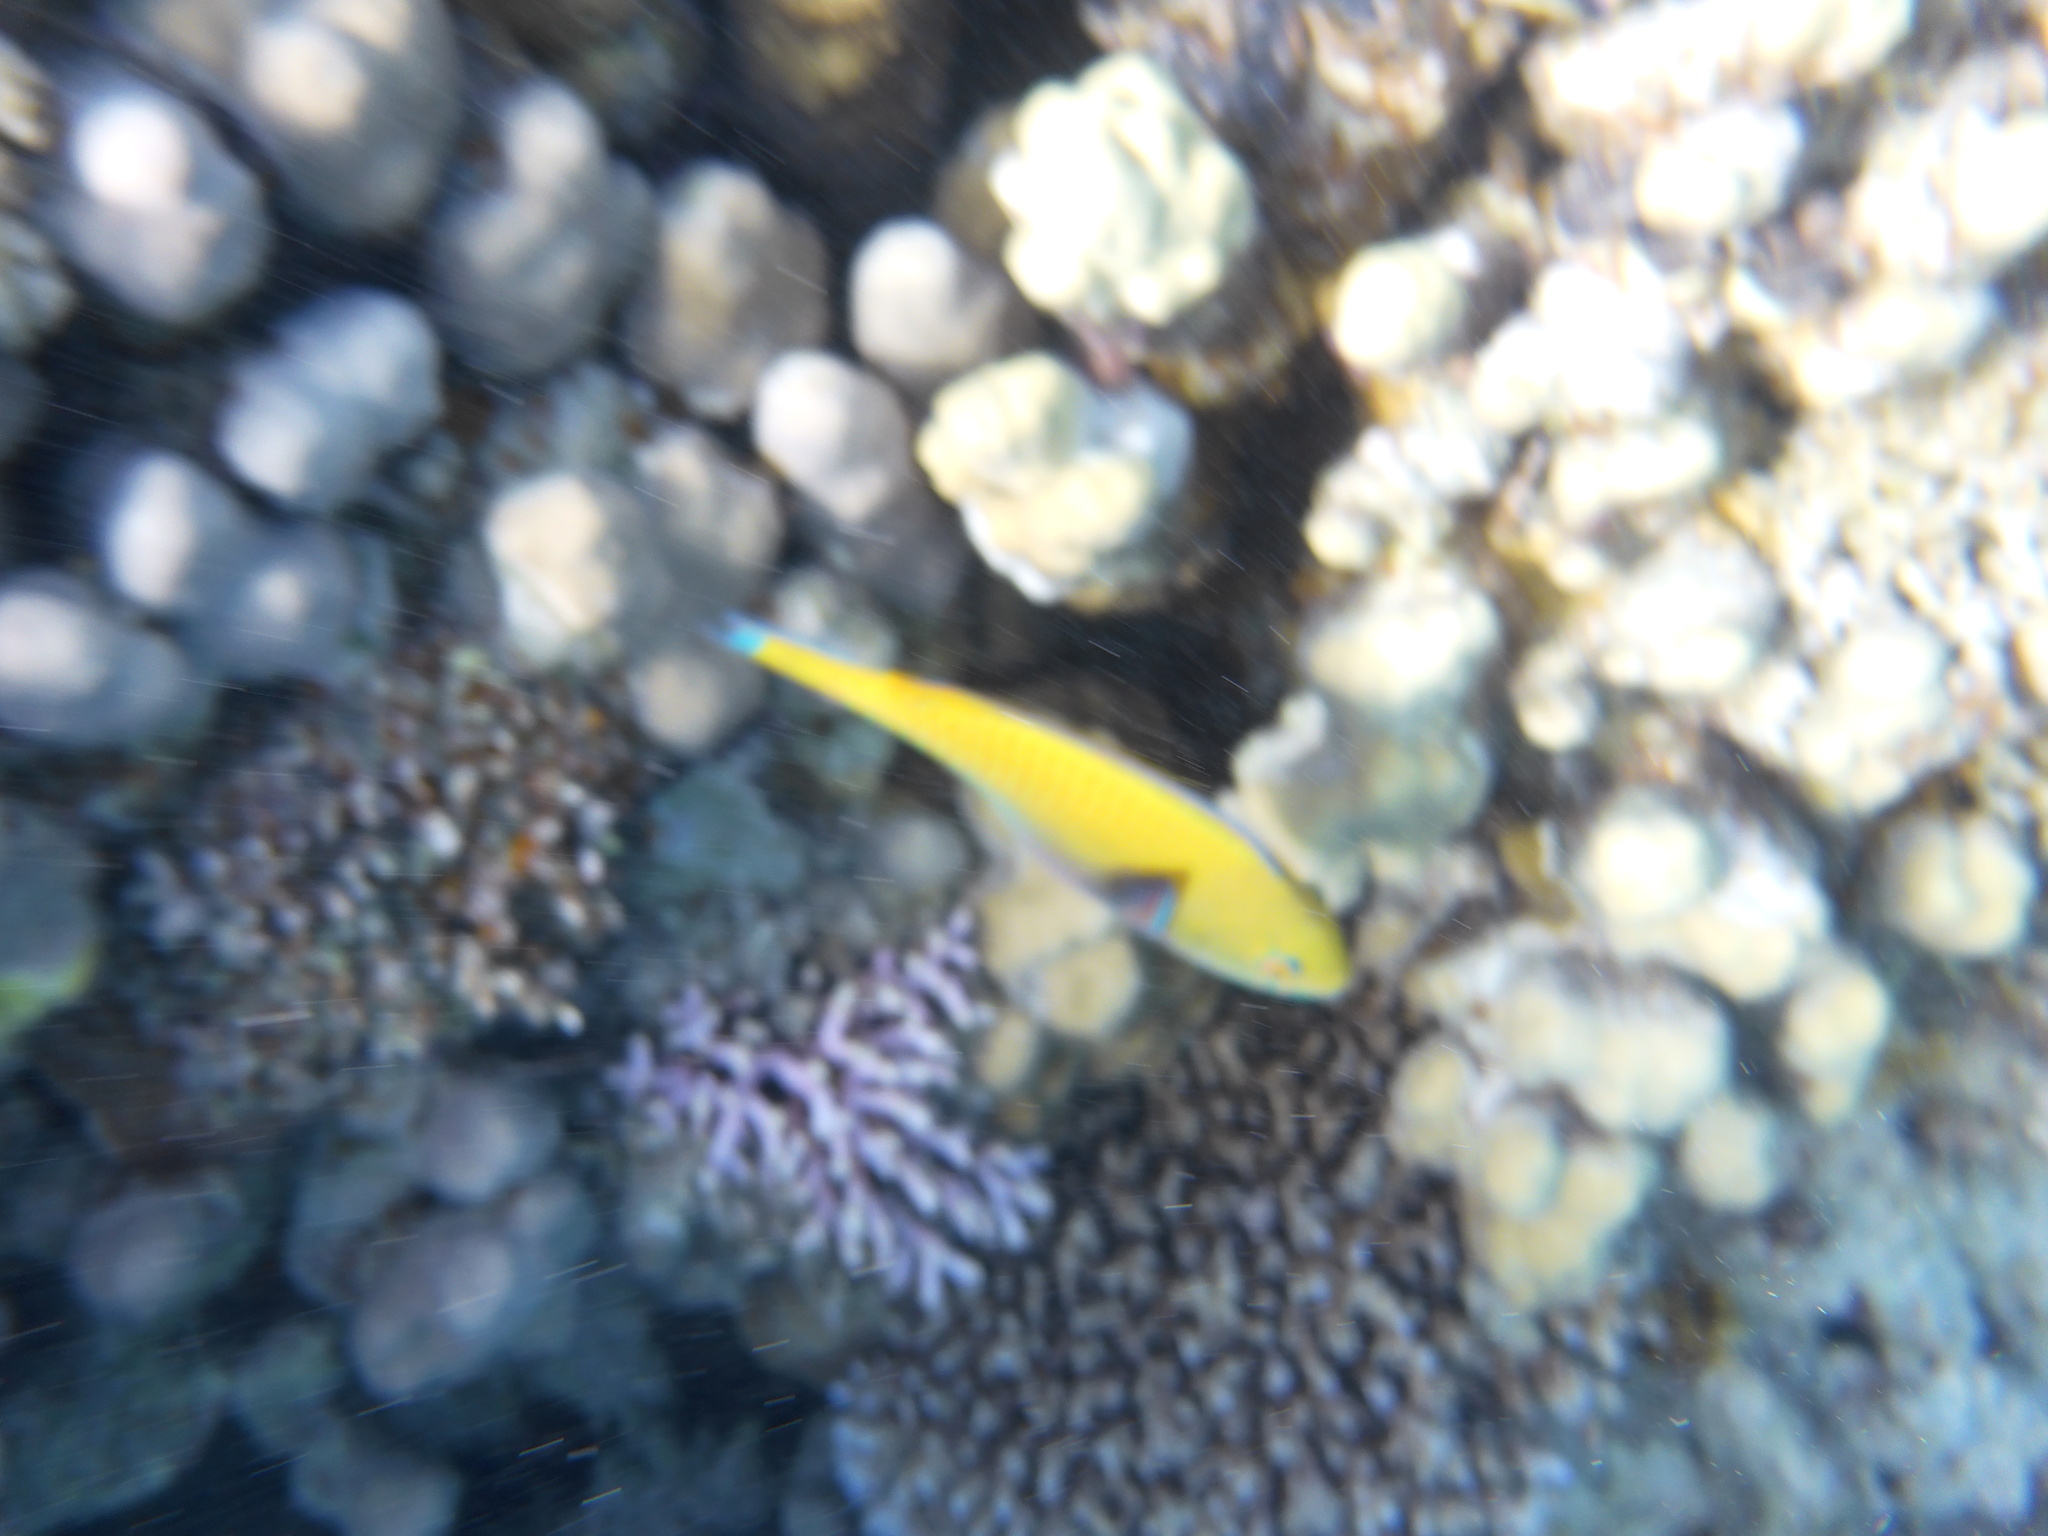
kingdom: Animalia
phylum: Chordata
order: Perciformes
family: Scaridae
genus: Chlorurus
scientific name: Chlorurus gibbus
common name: Heavybeak parrotfish
